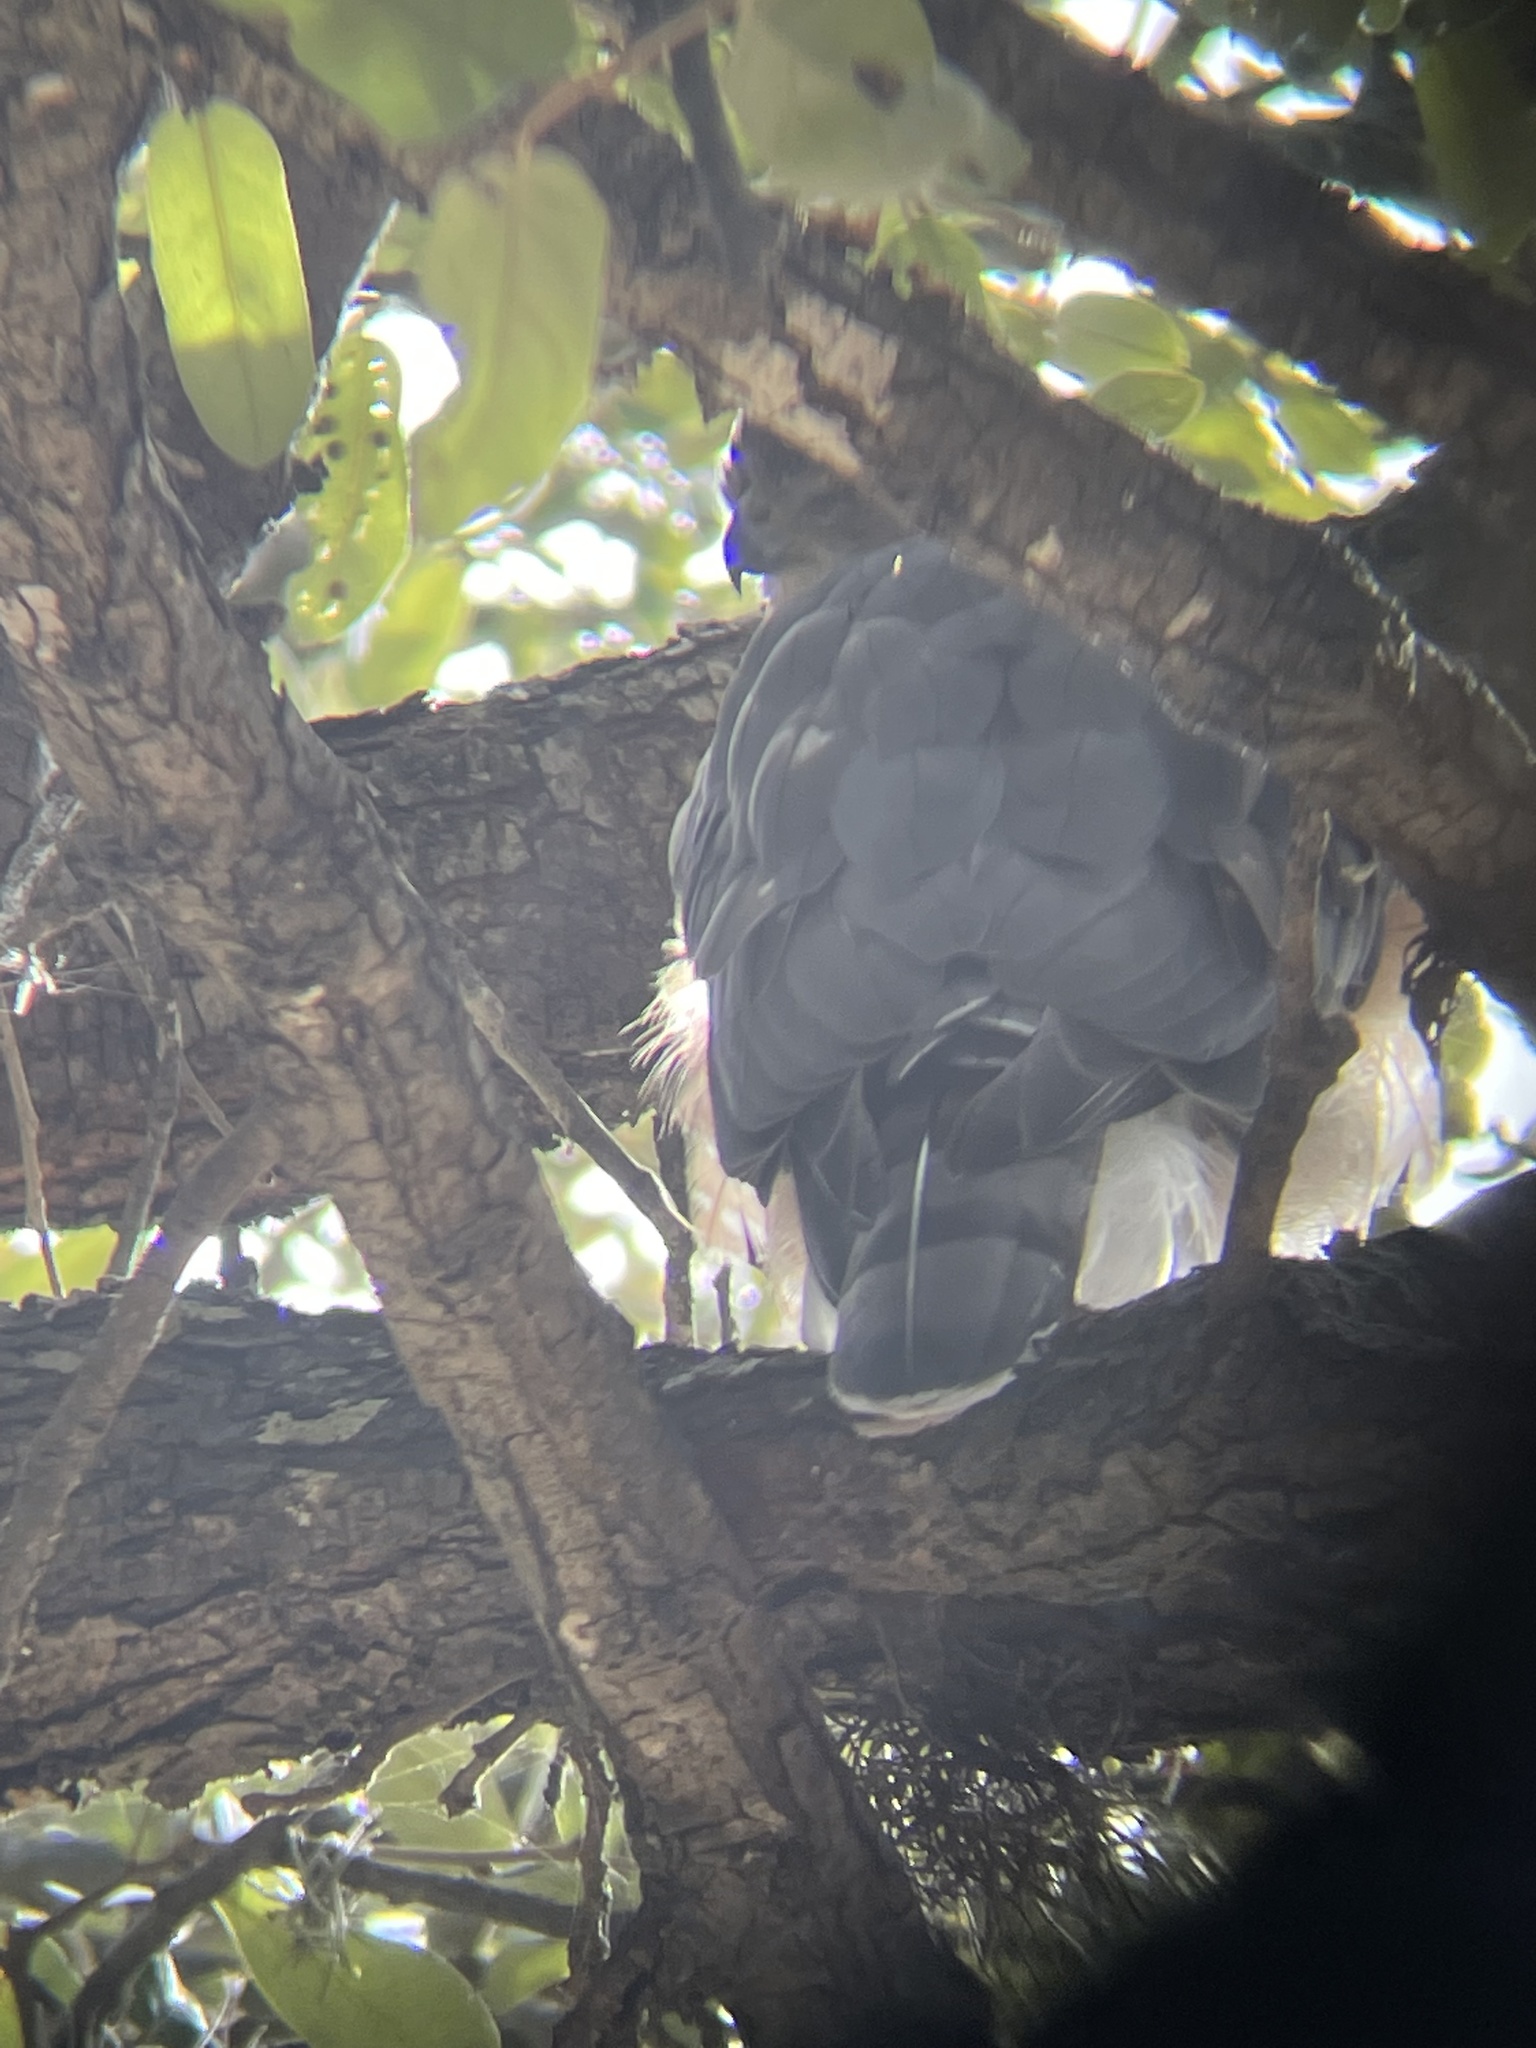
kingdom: Animalia
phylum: Chordata
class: Aves
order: Accipitriformes
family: Accipitridae
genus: Accipiter
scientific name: Accipiter cooperii
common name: Cooper's hawk
